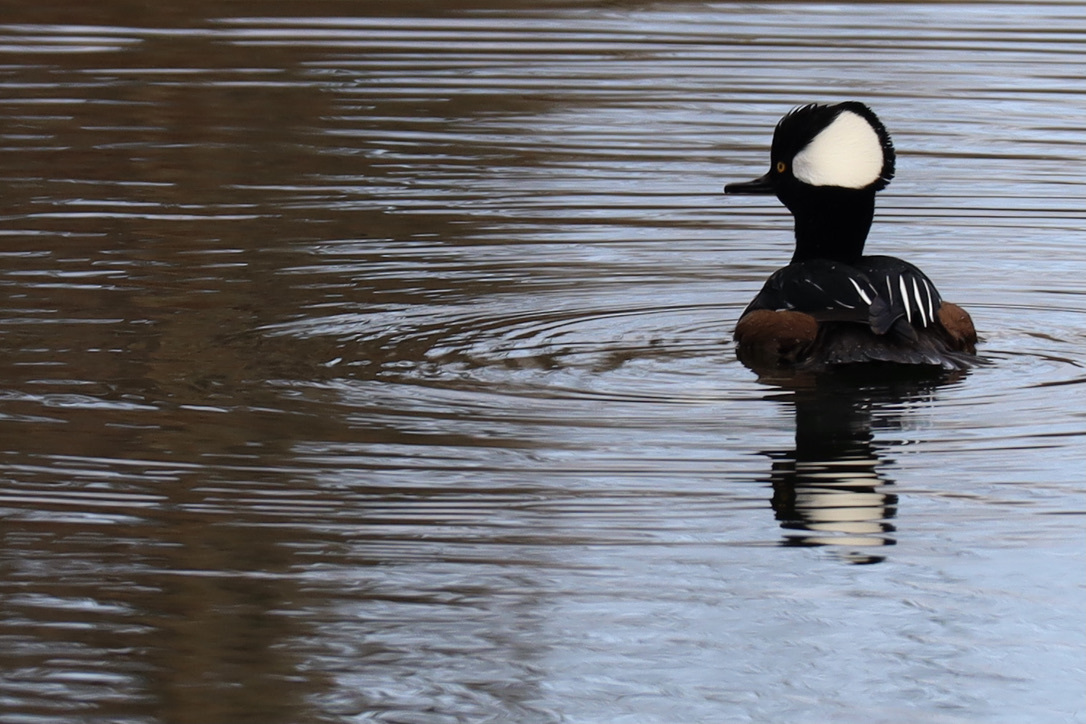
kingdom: Animalia
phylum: Chordata
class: Aves
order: Anseriformes
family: Anatidae
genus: Lophodytes
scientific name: Lophodytes cucullatus
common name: Hooded merganser
